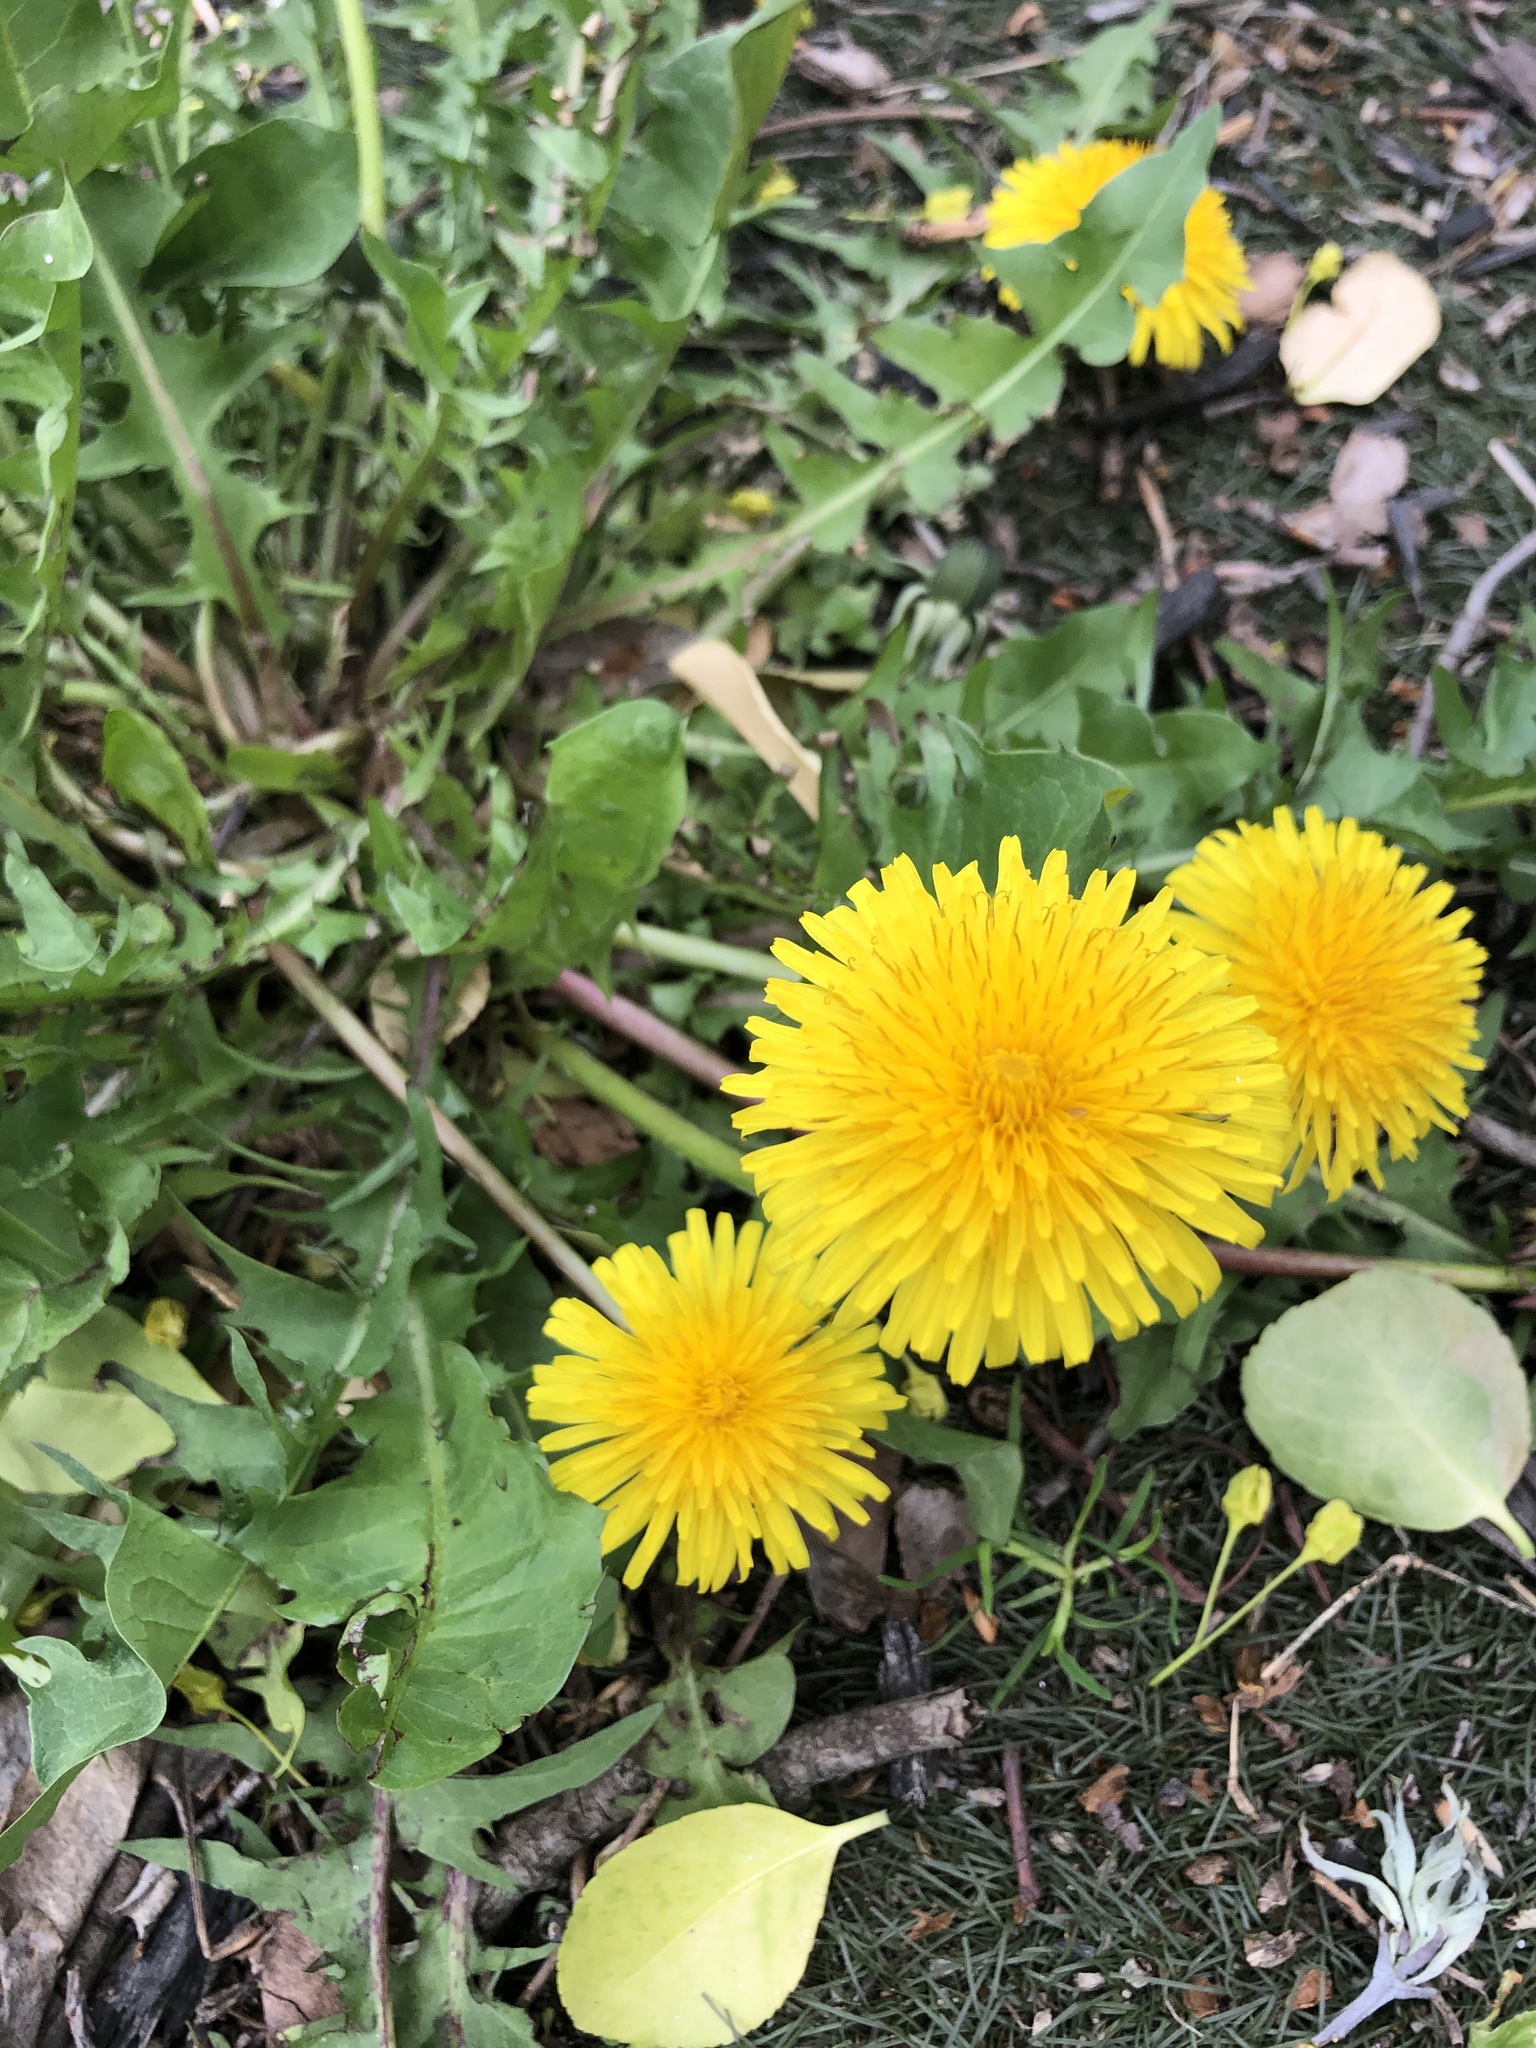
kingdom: Plantae
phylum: Tracheophyta
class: Magnoliopsida
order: Asterales
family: Asteraceae
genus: Taraxacum
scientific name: Taraxacum officinale
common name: Common dandelion
